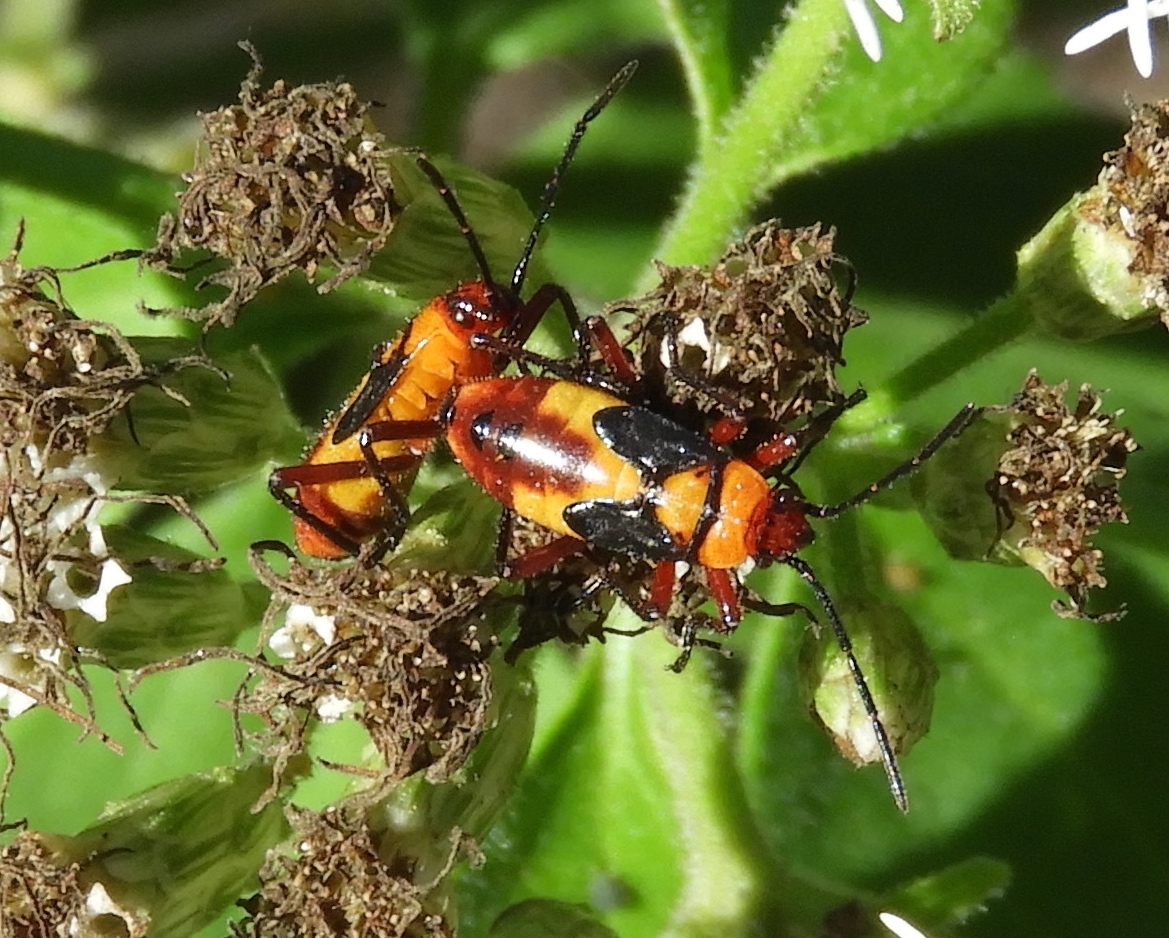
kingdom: Animalia
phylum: Arthropoda
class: Insecta
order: Hemiptera
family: Lygaeidae
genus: Oncopeltus
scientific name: Oncopeltus guttaloides
